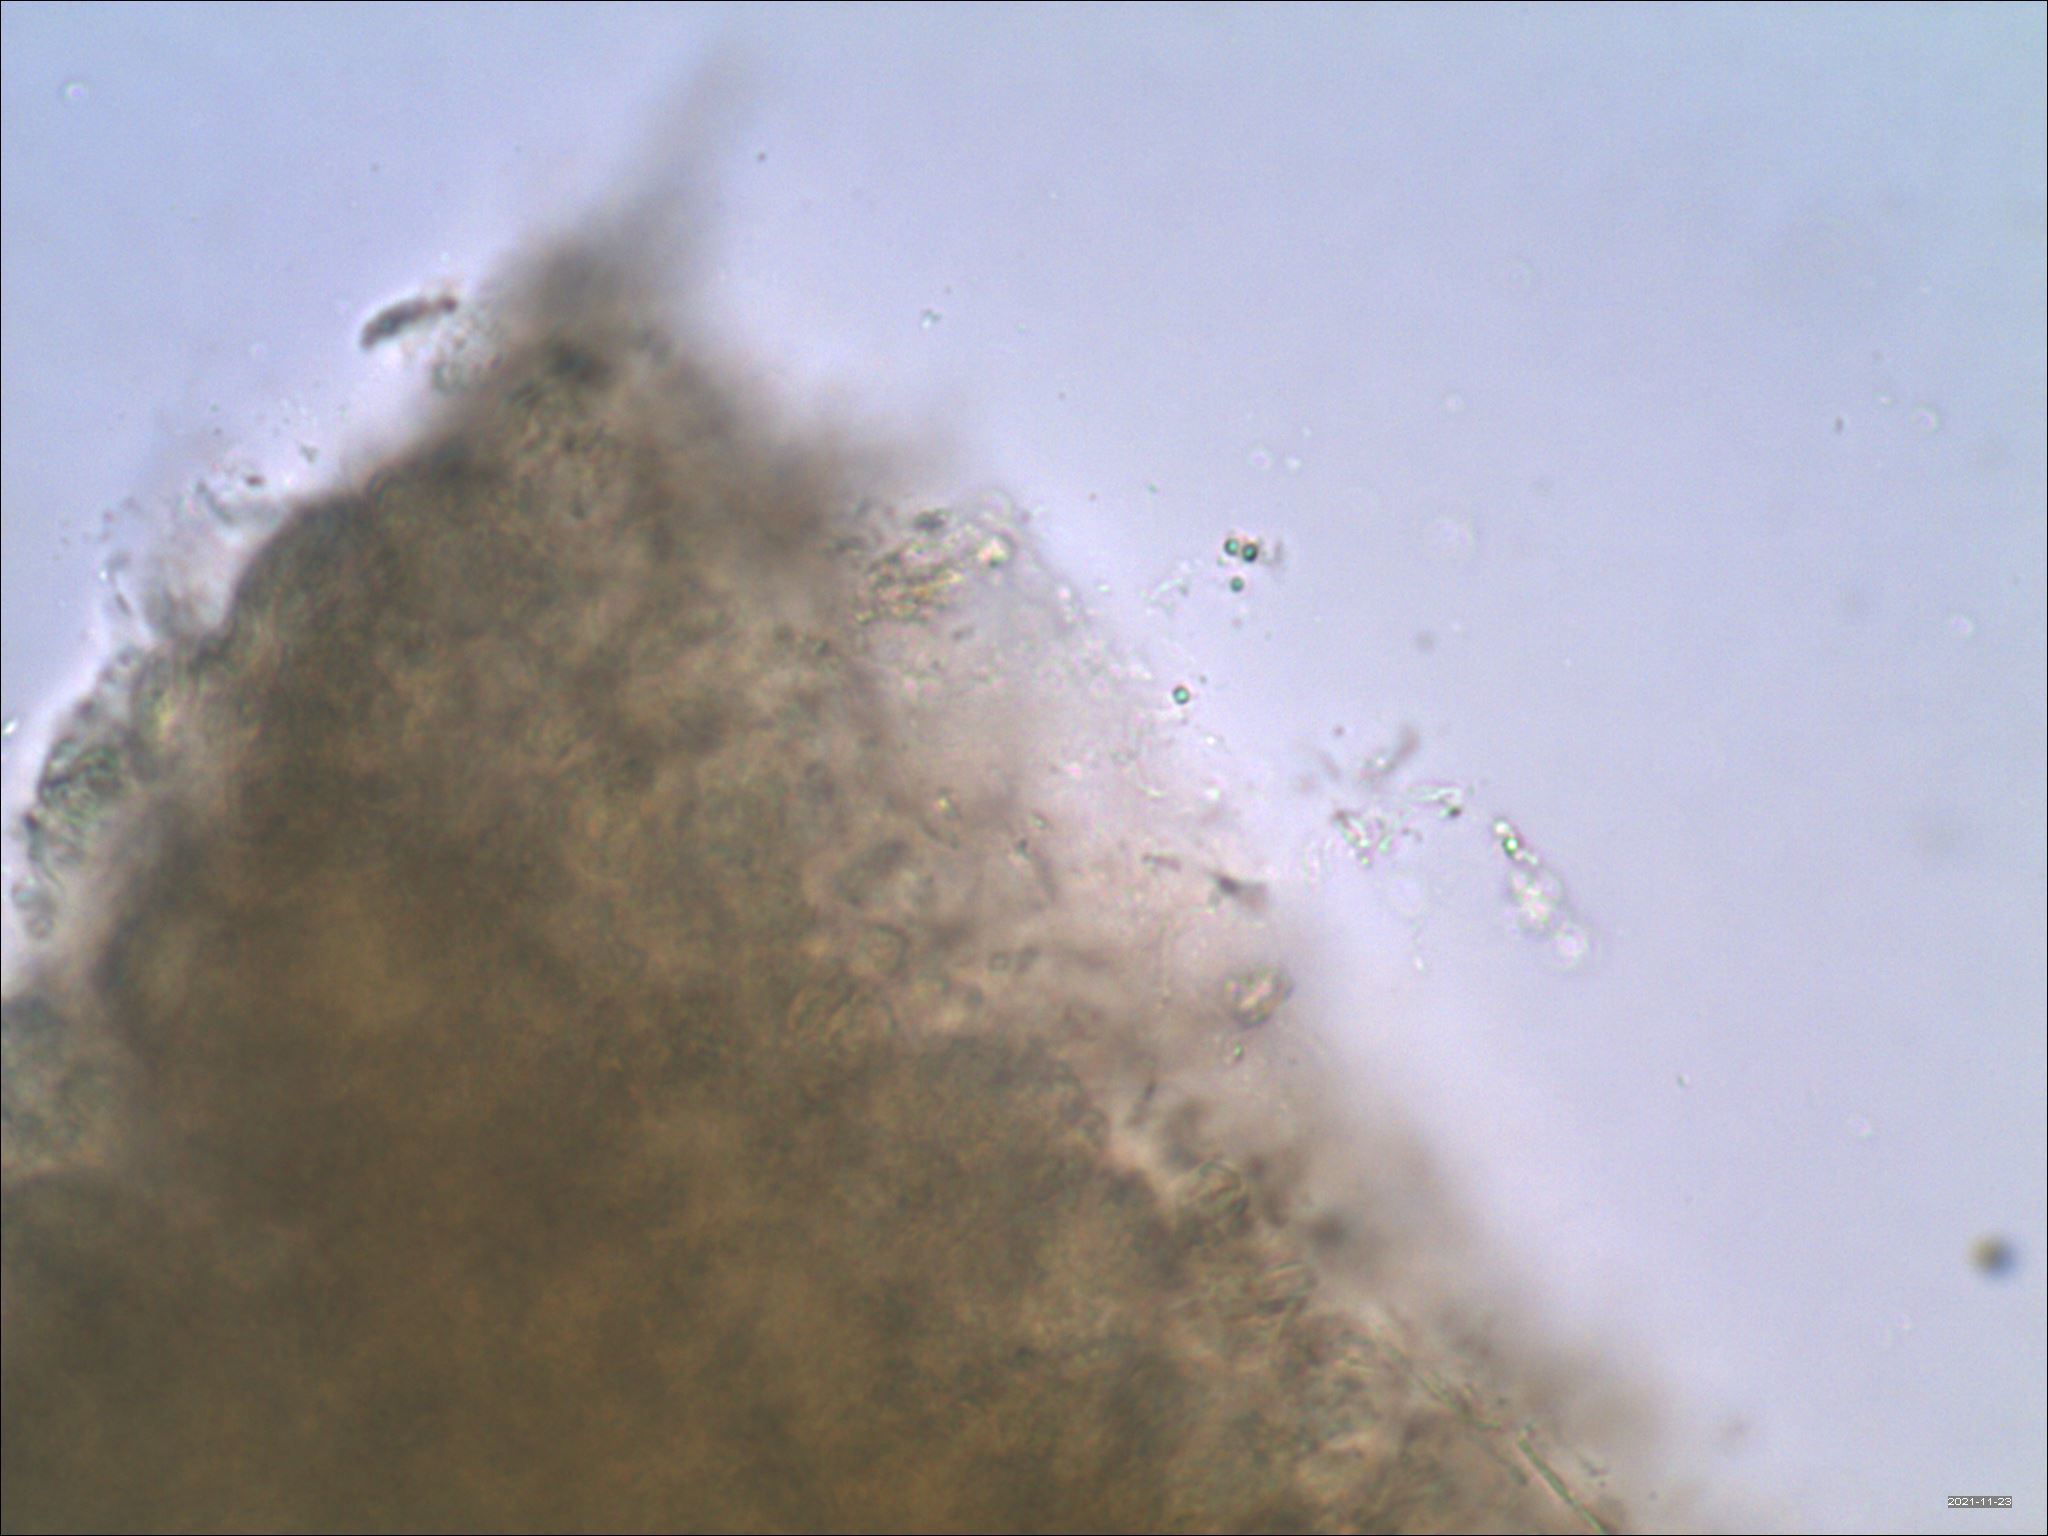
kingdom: Fungi
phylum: Basidiomycota
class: Agaricomycetes
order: Auriculariales
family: Auriculariaceae
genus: Exidia
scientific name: Exidia glandulosa
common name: Witches' butter
